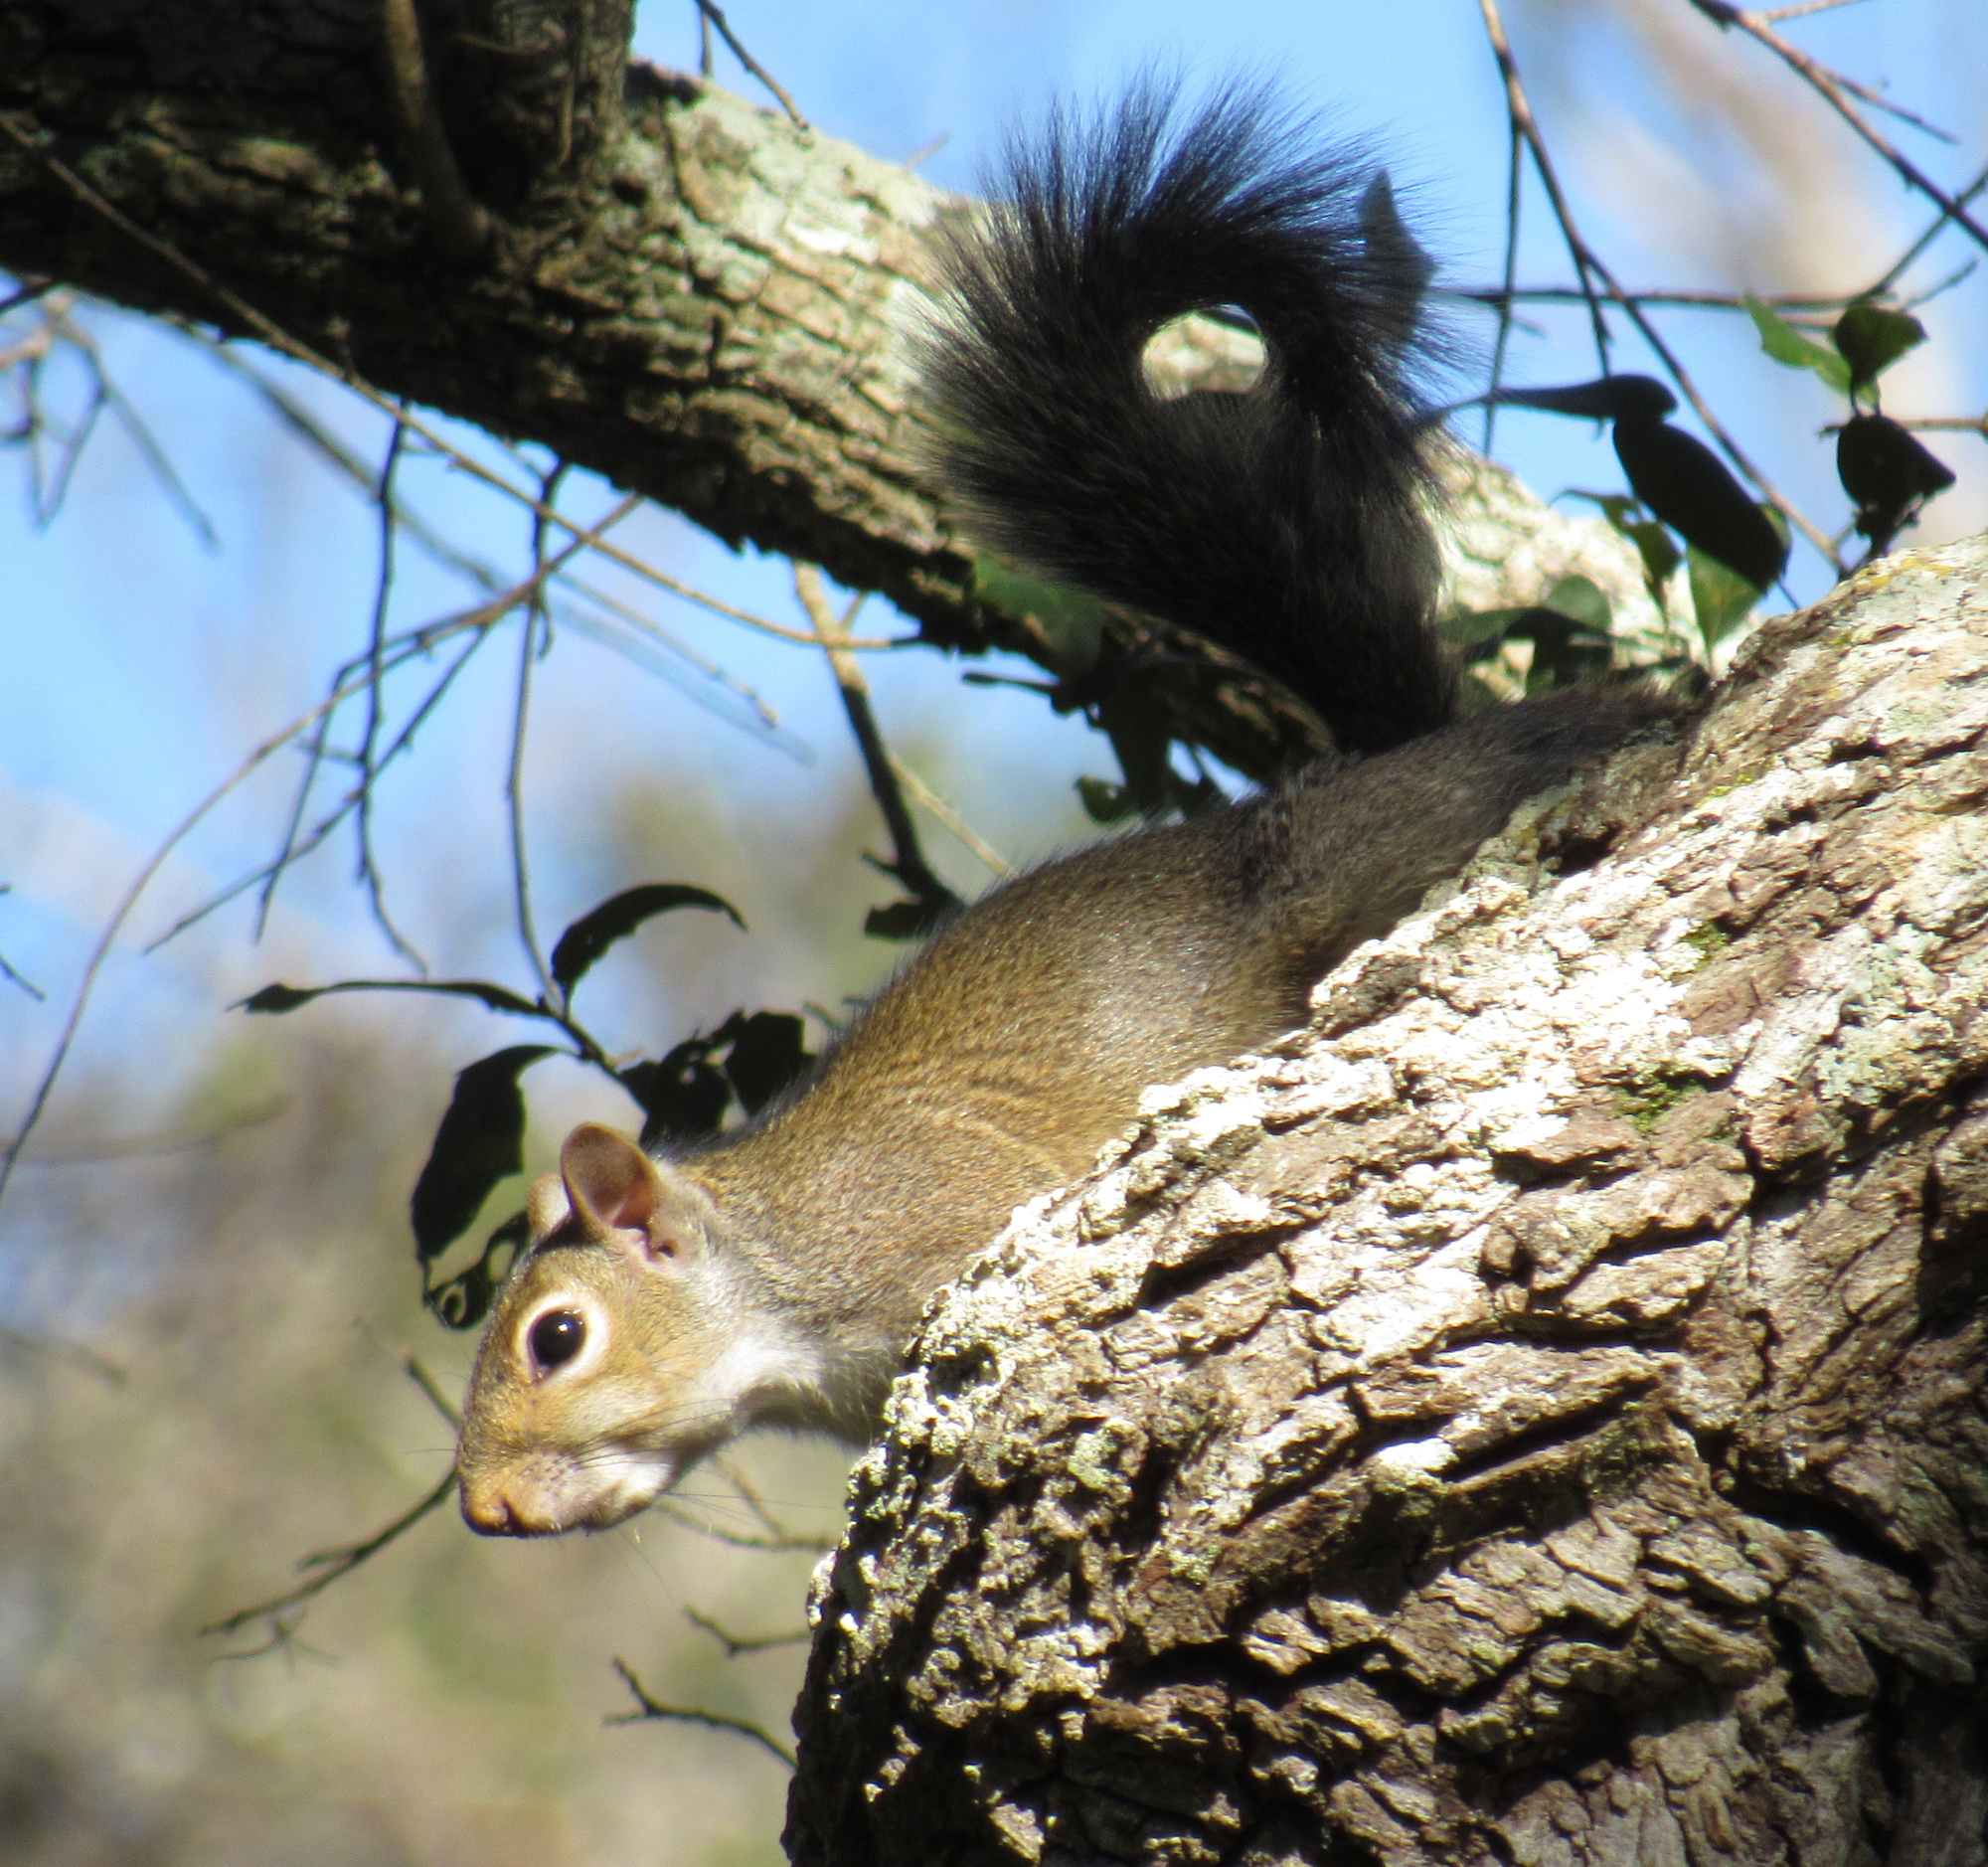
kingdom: Animalia
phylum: Chordata
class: Mammalia
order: Rodentia
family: Sciuridae
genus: Sciurus
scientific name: Sciurus carolinensis
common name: Eastern gray squirrel
